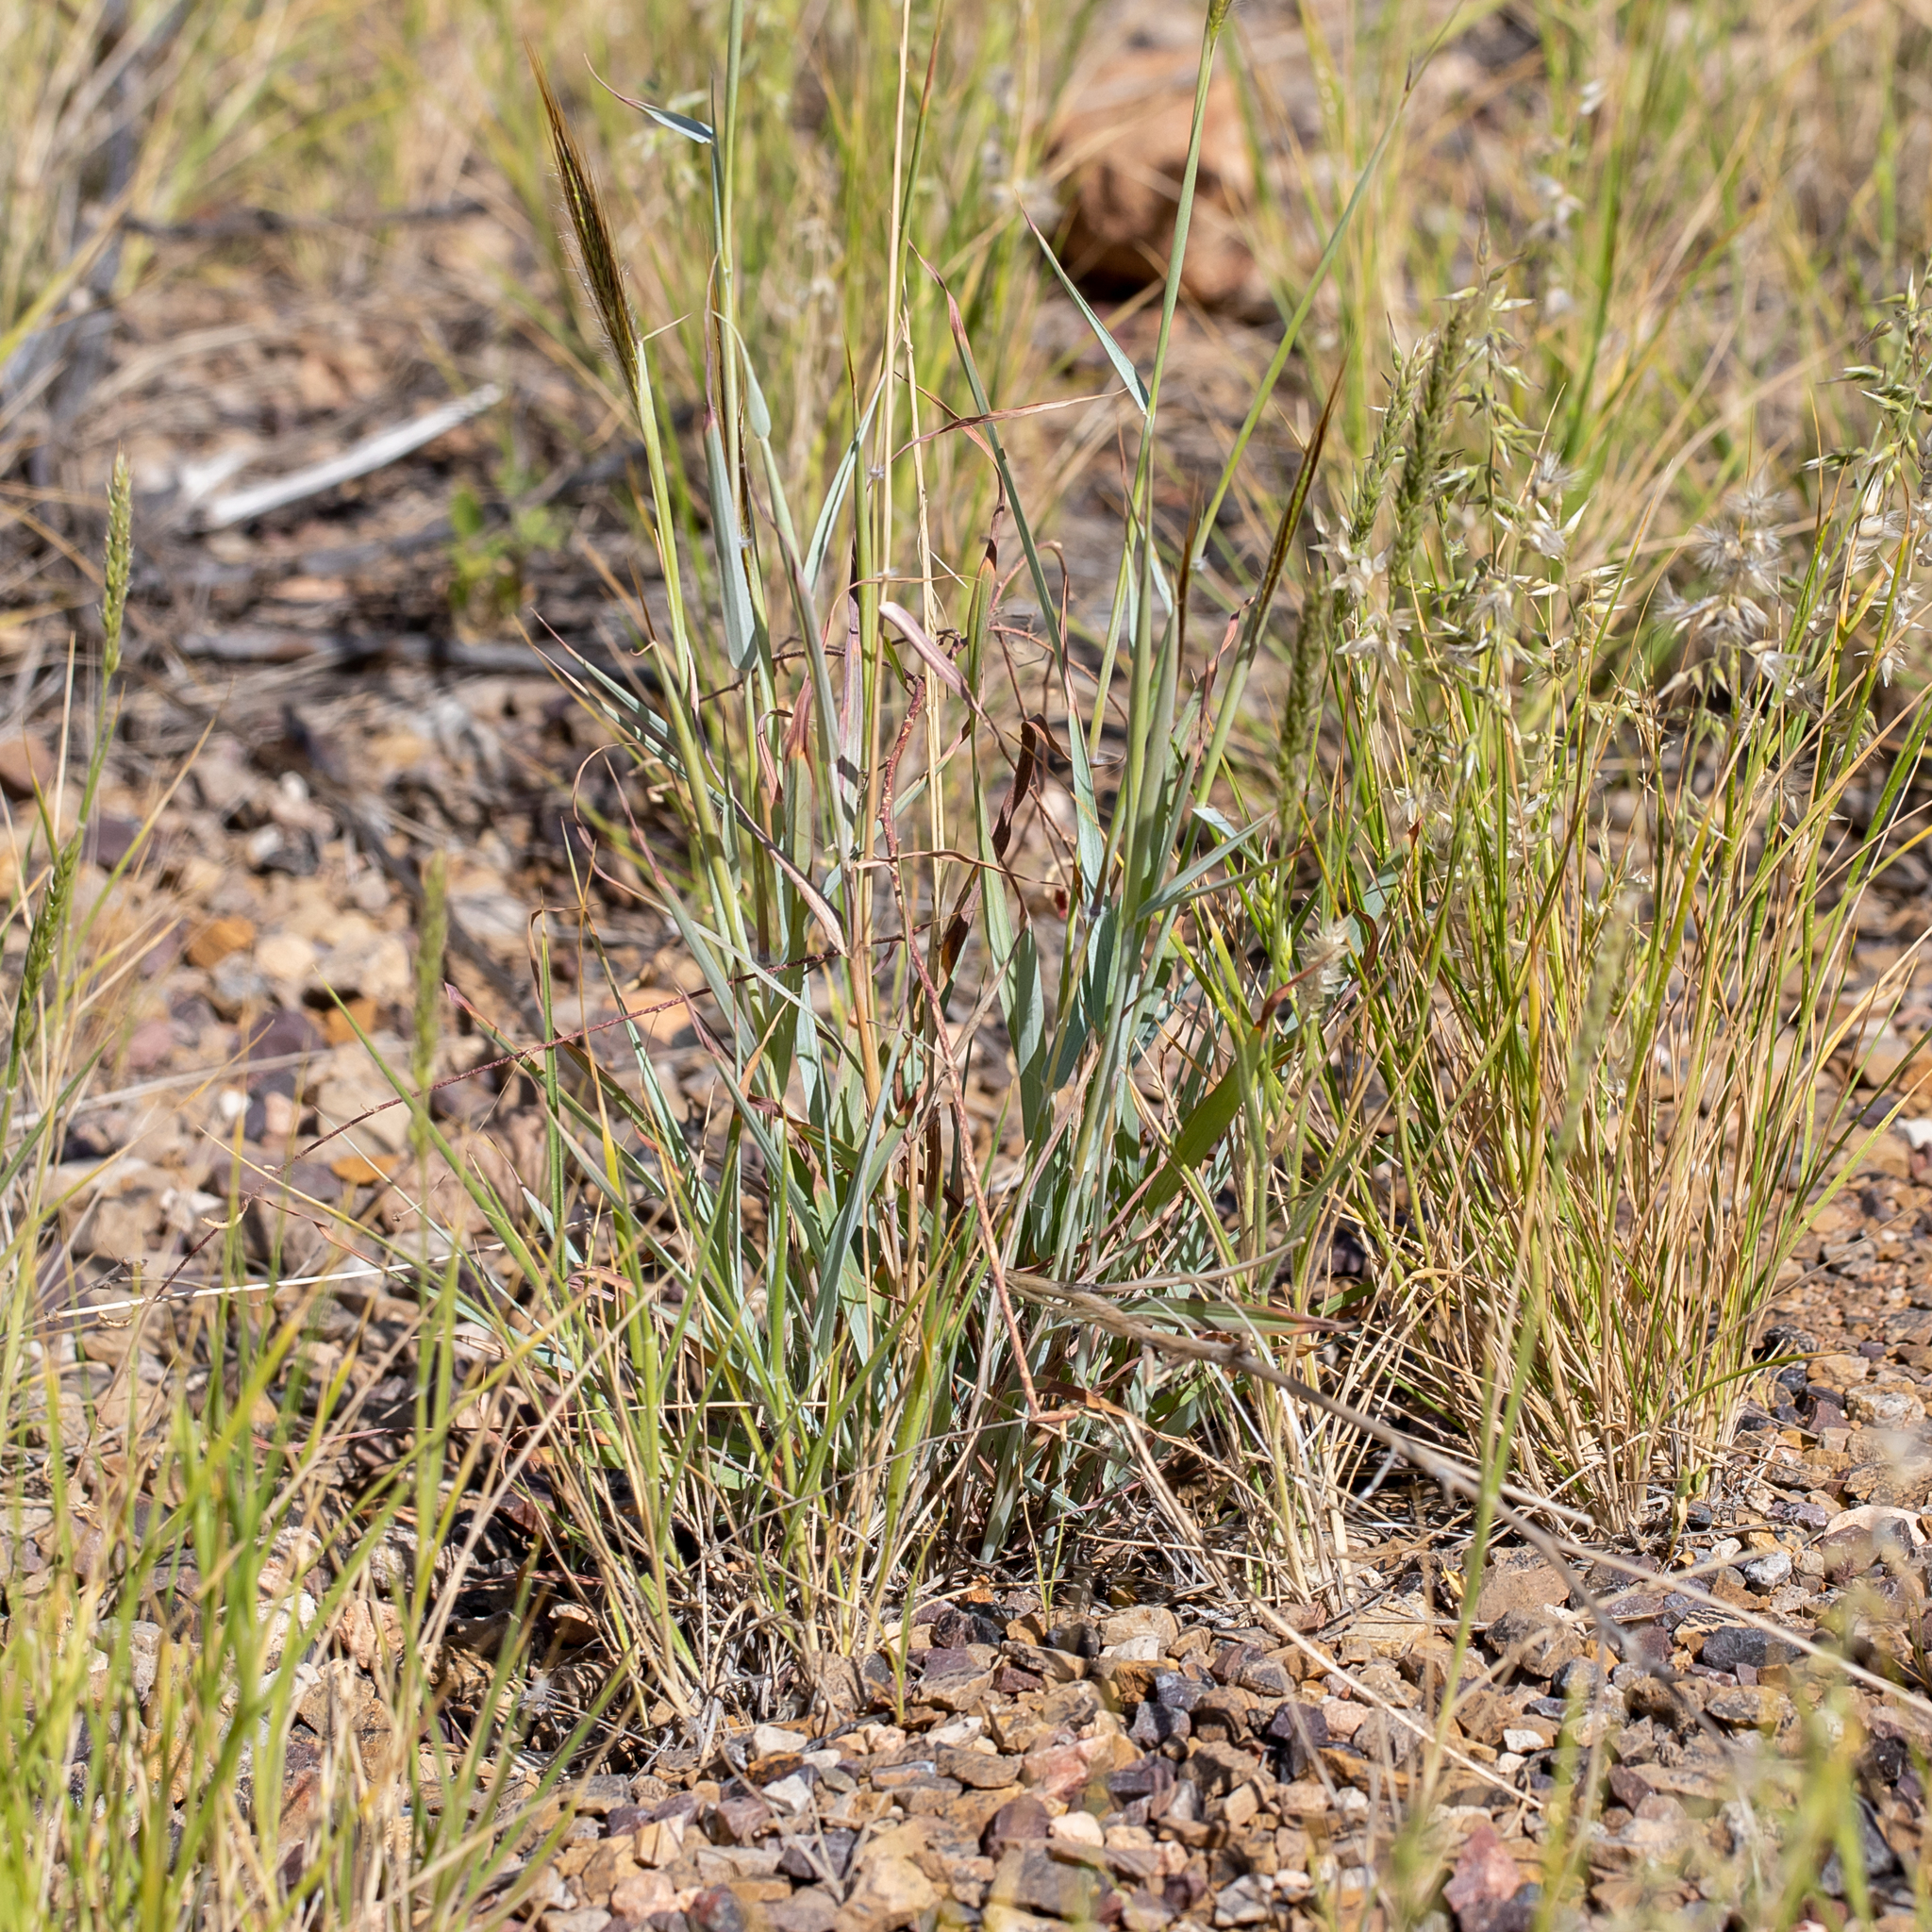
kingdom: Plantae
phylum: Tracheophyta
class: Liliopsida
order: Poales
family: Poaceae
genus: Dichanthium
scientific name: Dichanthium sericeum
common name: Silky bluestem
